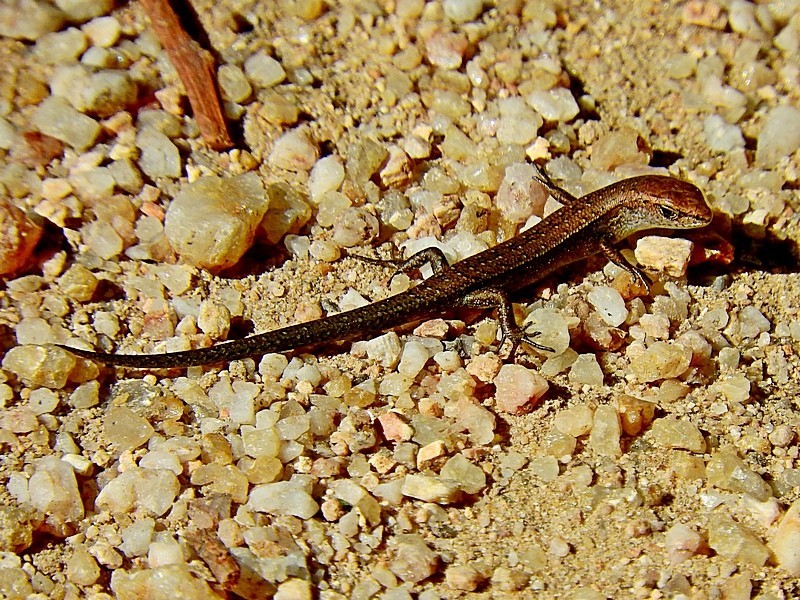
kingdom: Animalia
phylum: Chordata
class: Squamata
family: Scincidae
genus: Lampropholis
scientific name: Lampropholis delicata
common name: Plague skink
